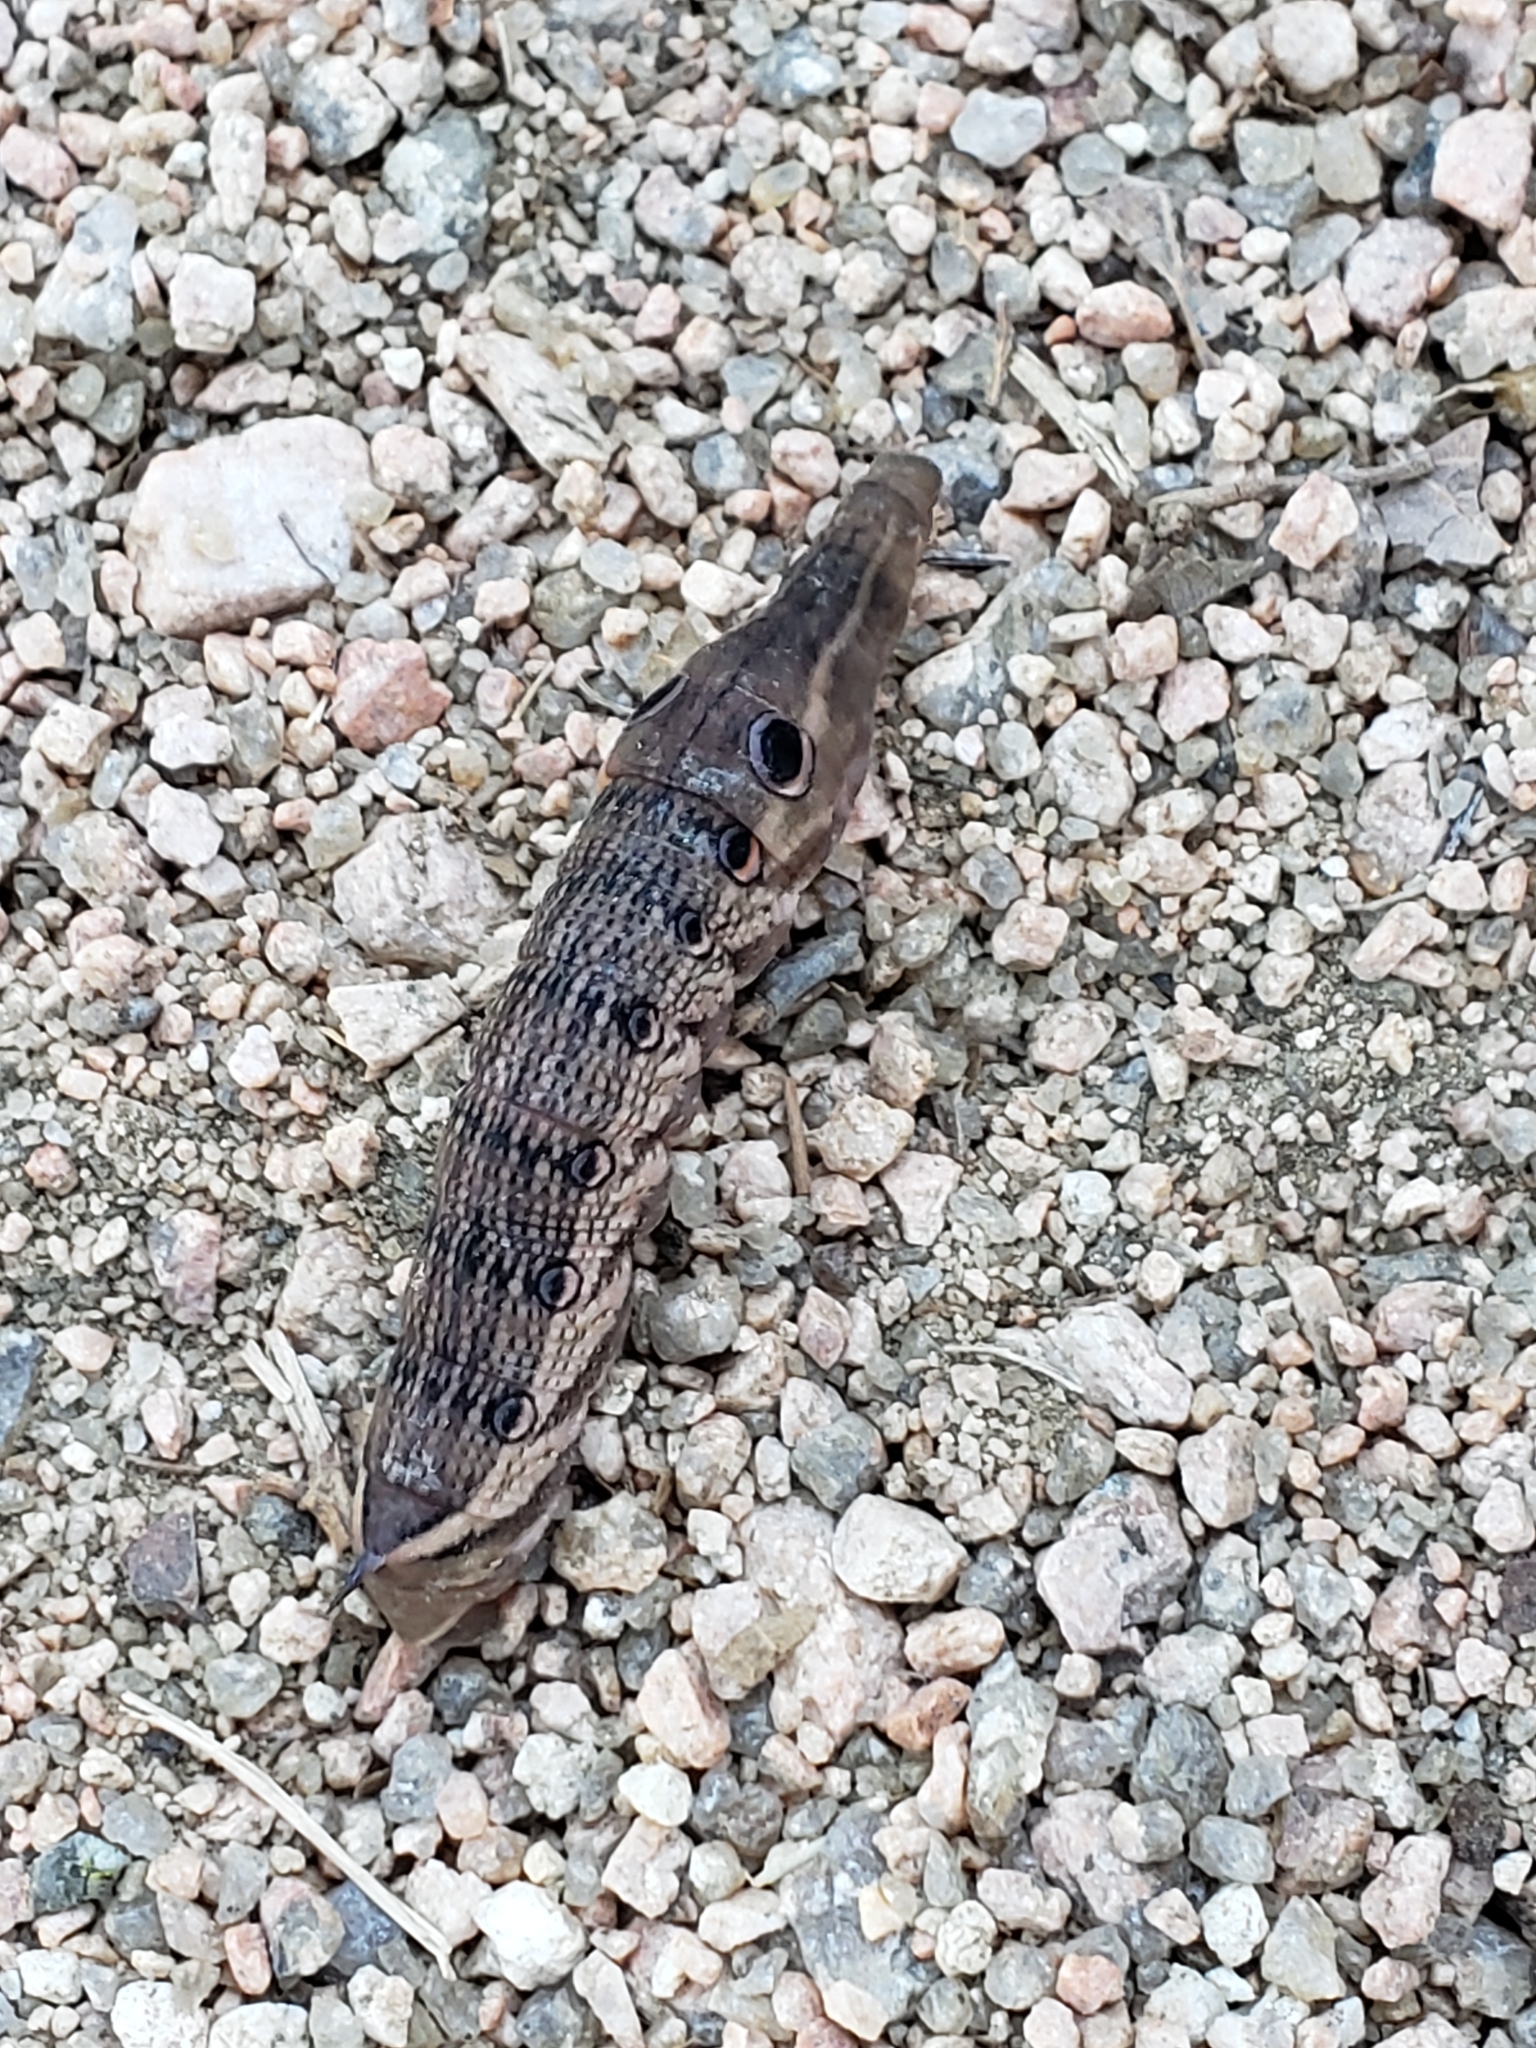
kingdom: Animalia
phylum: Arthropoda
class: Insecta
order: Lepidoptera
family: Sphingidae
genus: Xylophanes
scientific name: Xylophanes tersa
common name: Tersa sphinx
